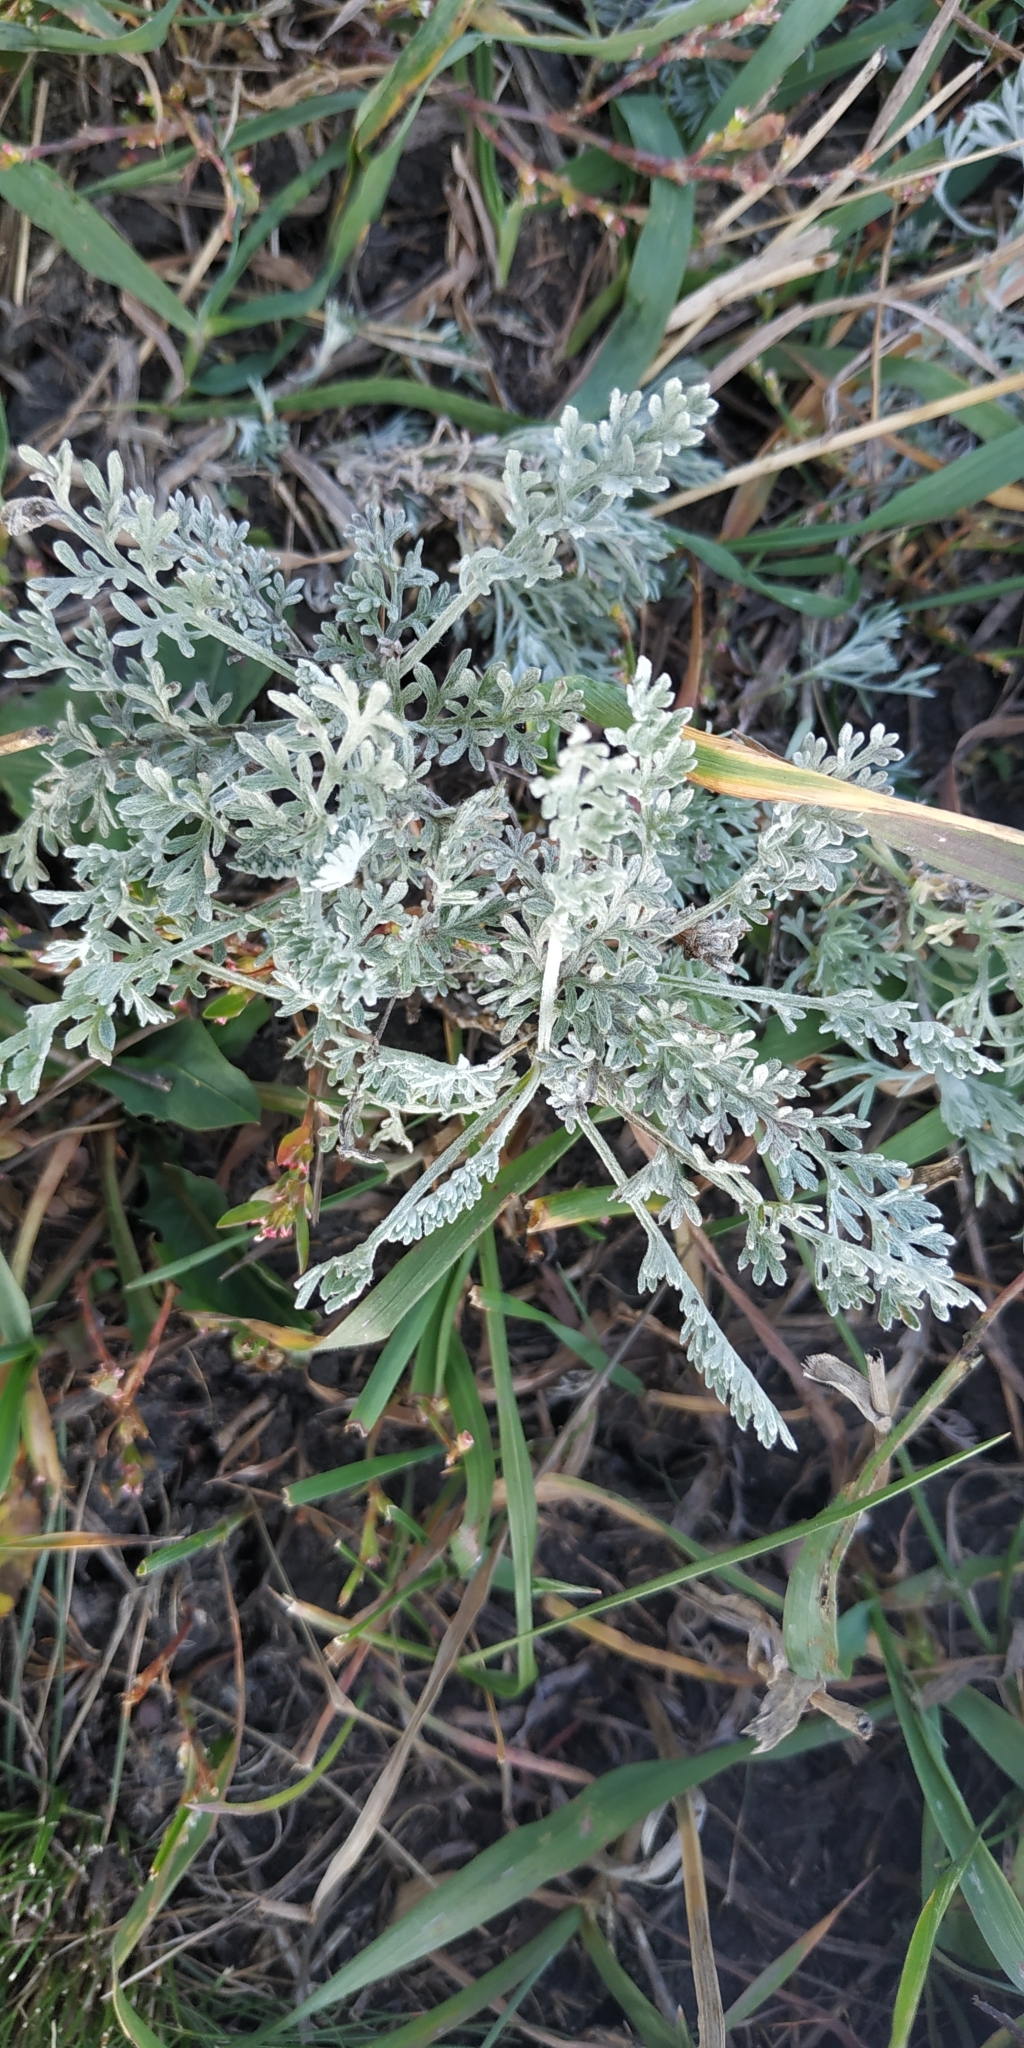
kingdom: Plantae
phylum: Tracheophyta
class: Magnoliopsida
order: Asterales
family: Asteraceae
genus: Artemisia
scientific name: Artemisia nitrosa
